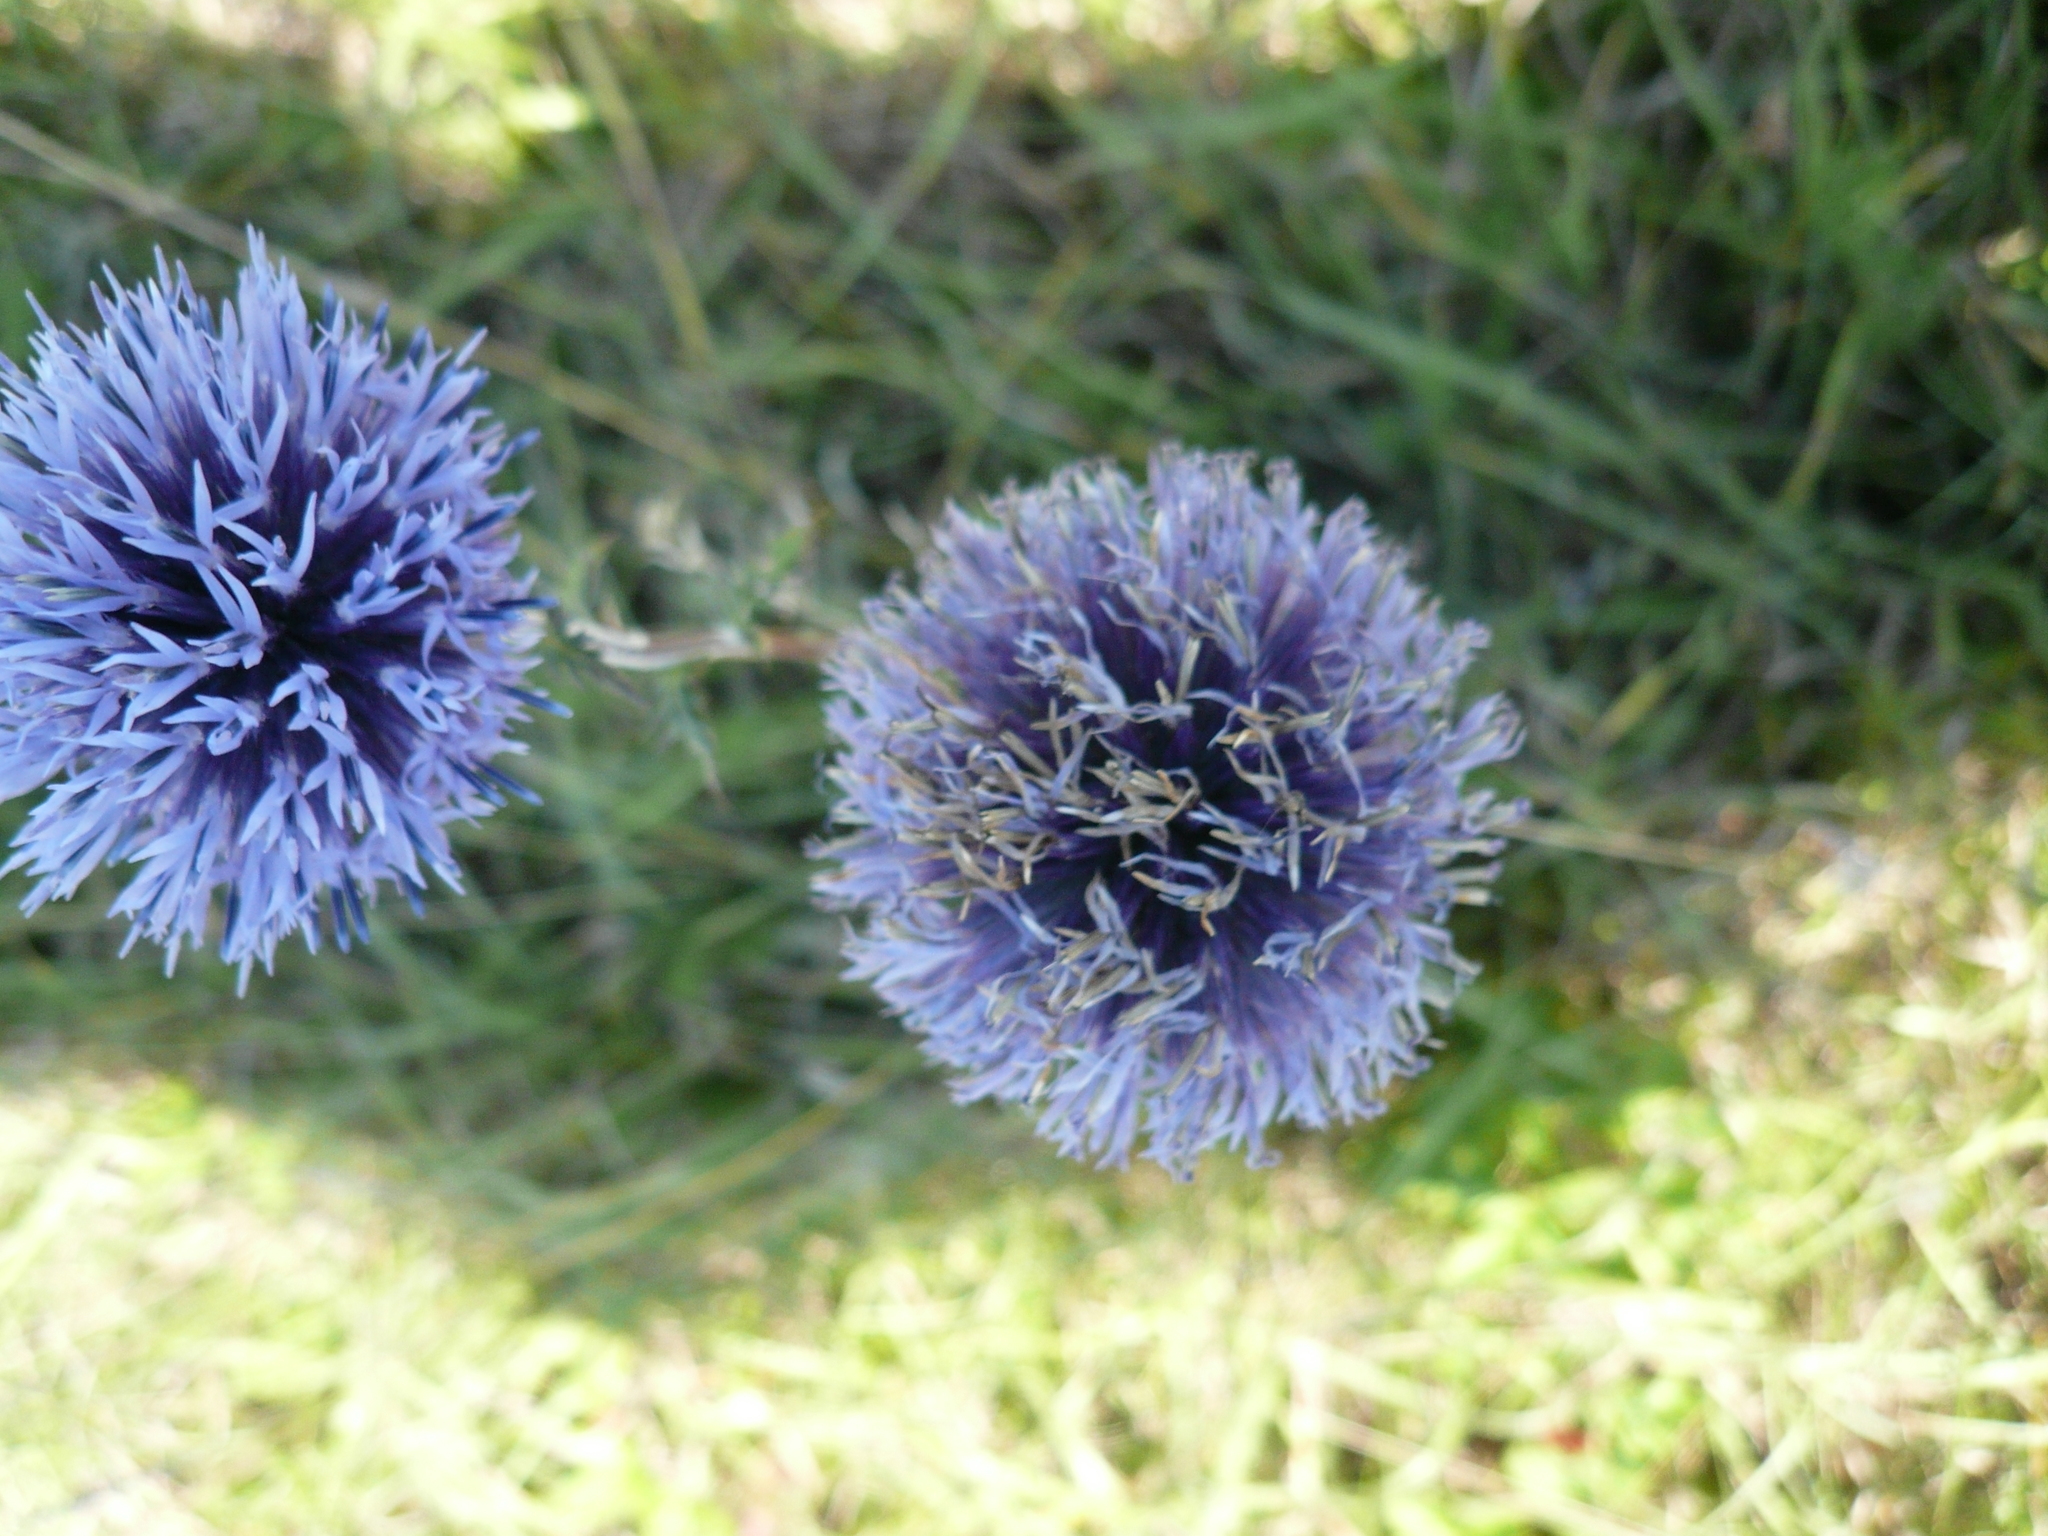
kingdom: Plantae
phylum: Tracheophyta
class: Magnoliopsida
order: Asterales
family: Asteraceae
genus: Echinops
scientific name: Echinops ritro
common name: Globe thistle
